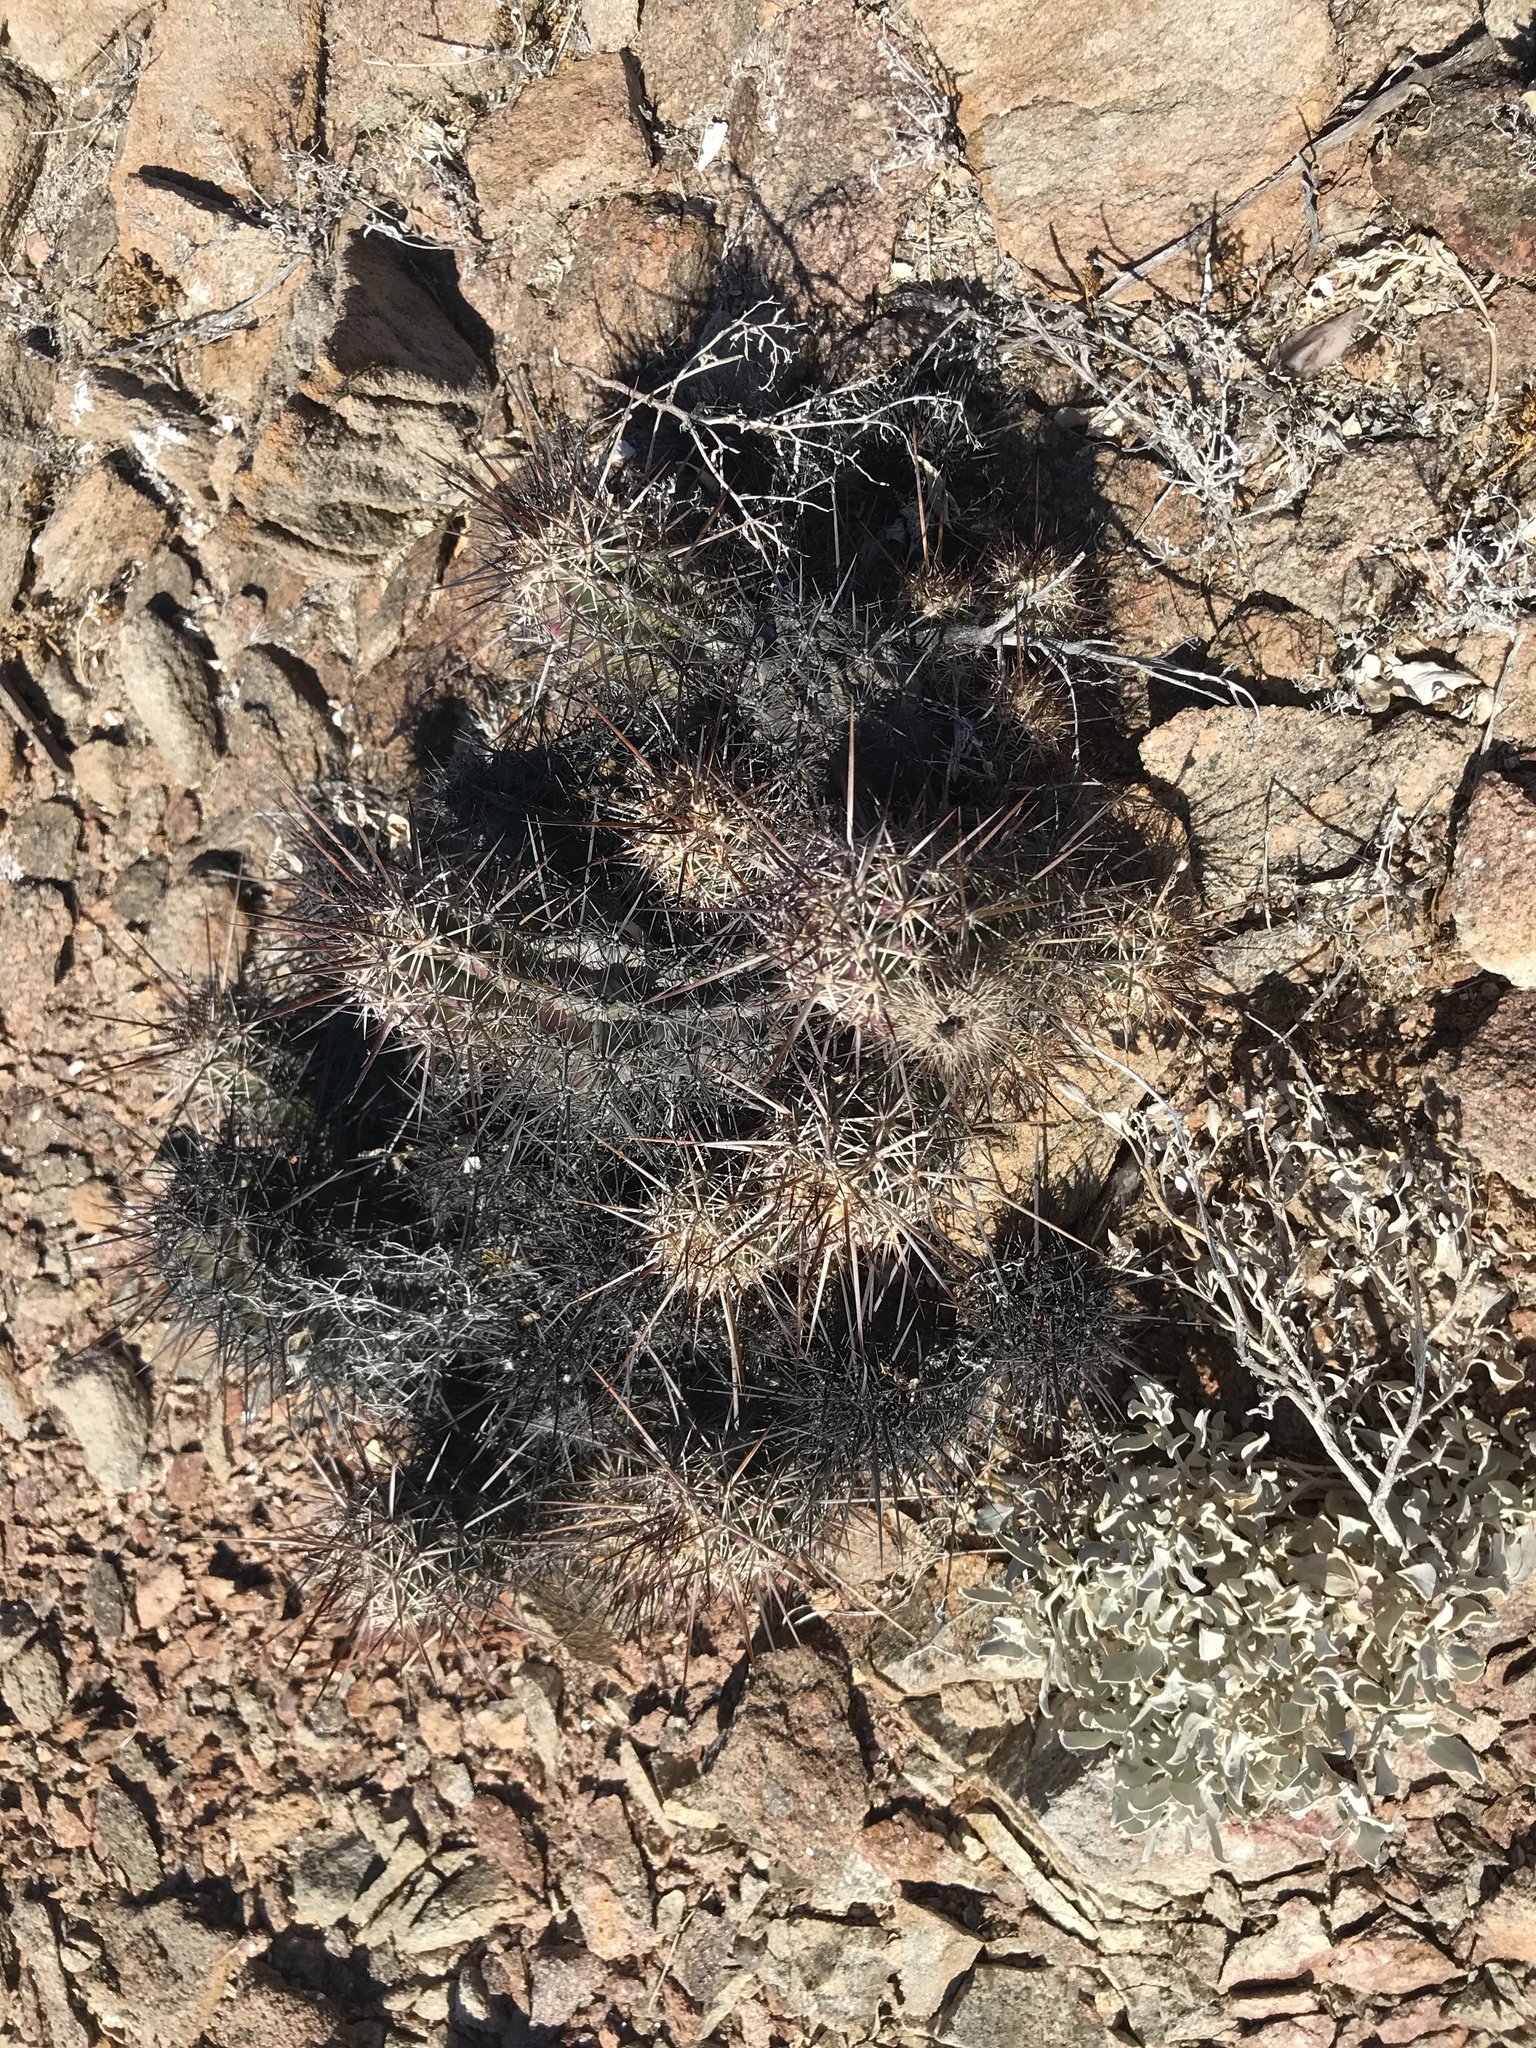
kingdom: Plantae
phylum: Tracheophyta
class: Magnoliopsida
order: Caryophyllales
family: Cactaceae
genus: Echinocereus
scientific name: Echinocereus ferreiranus
